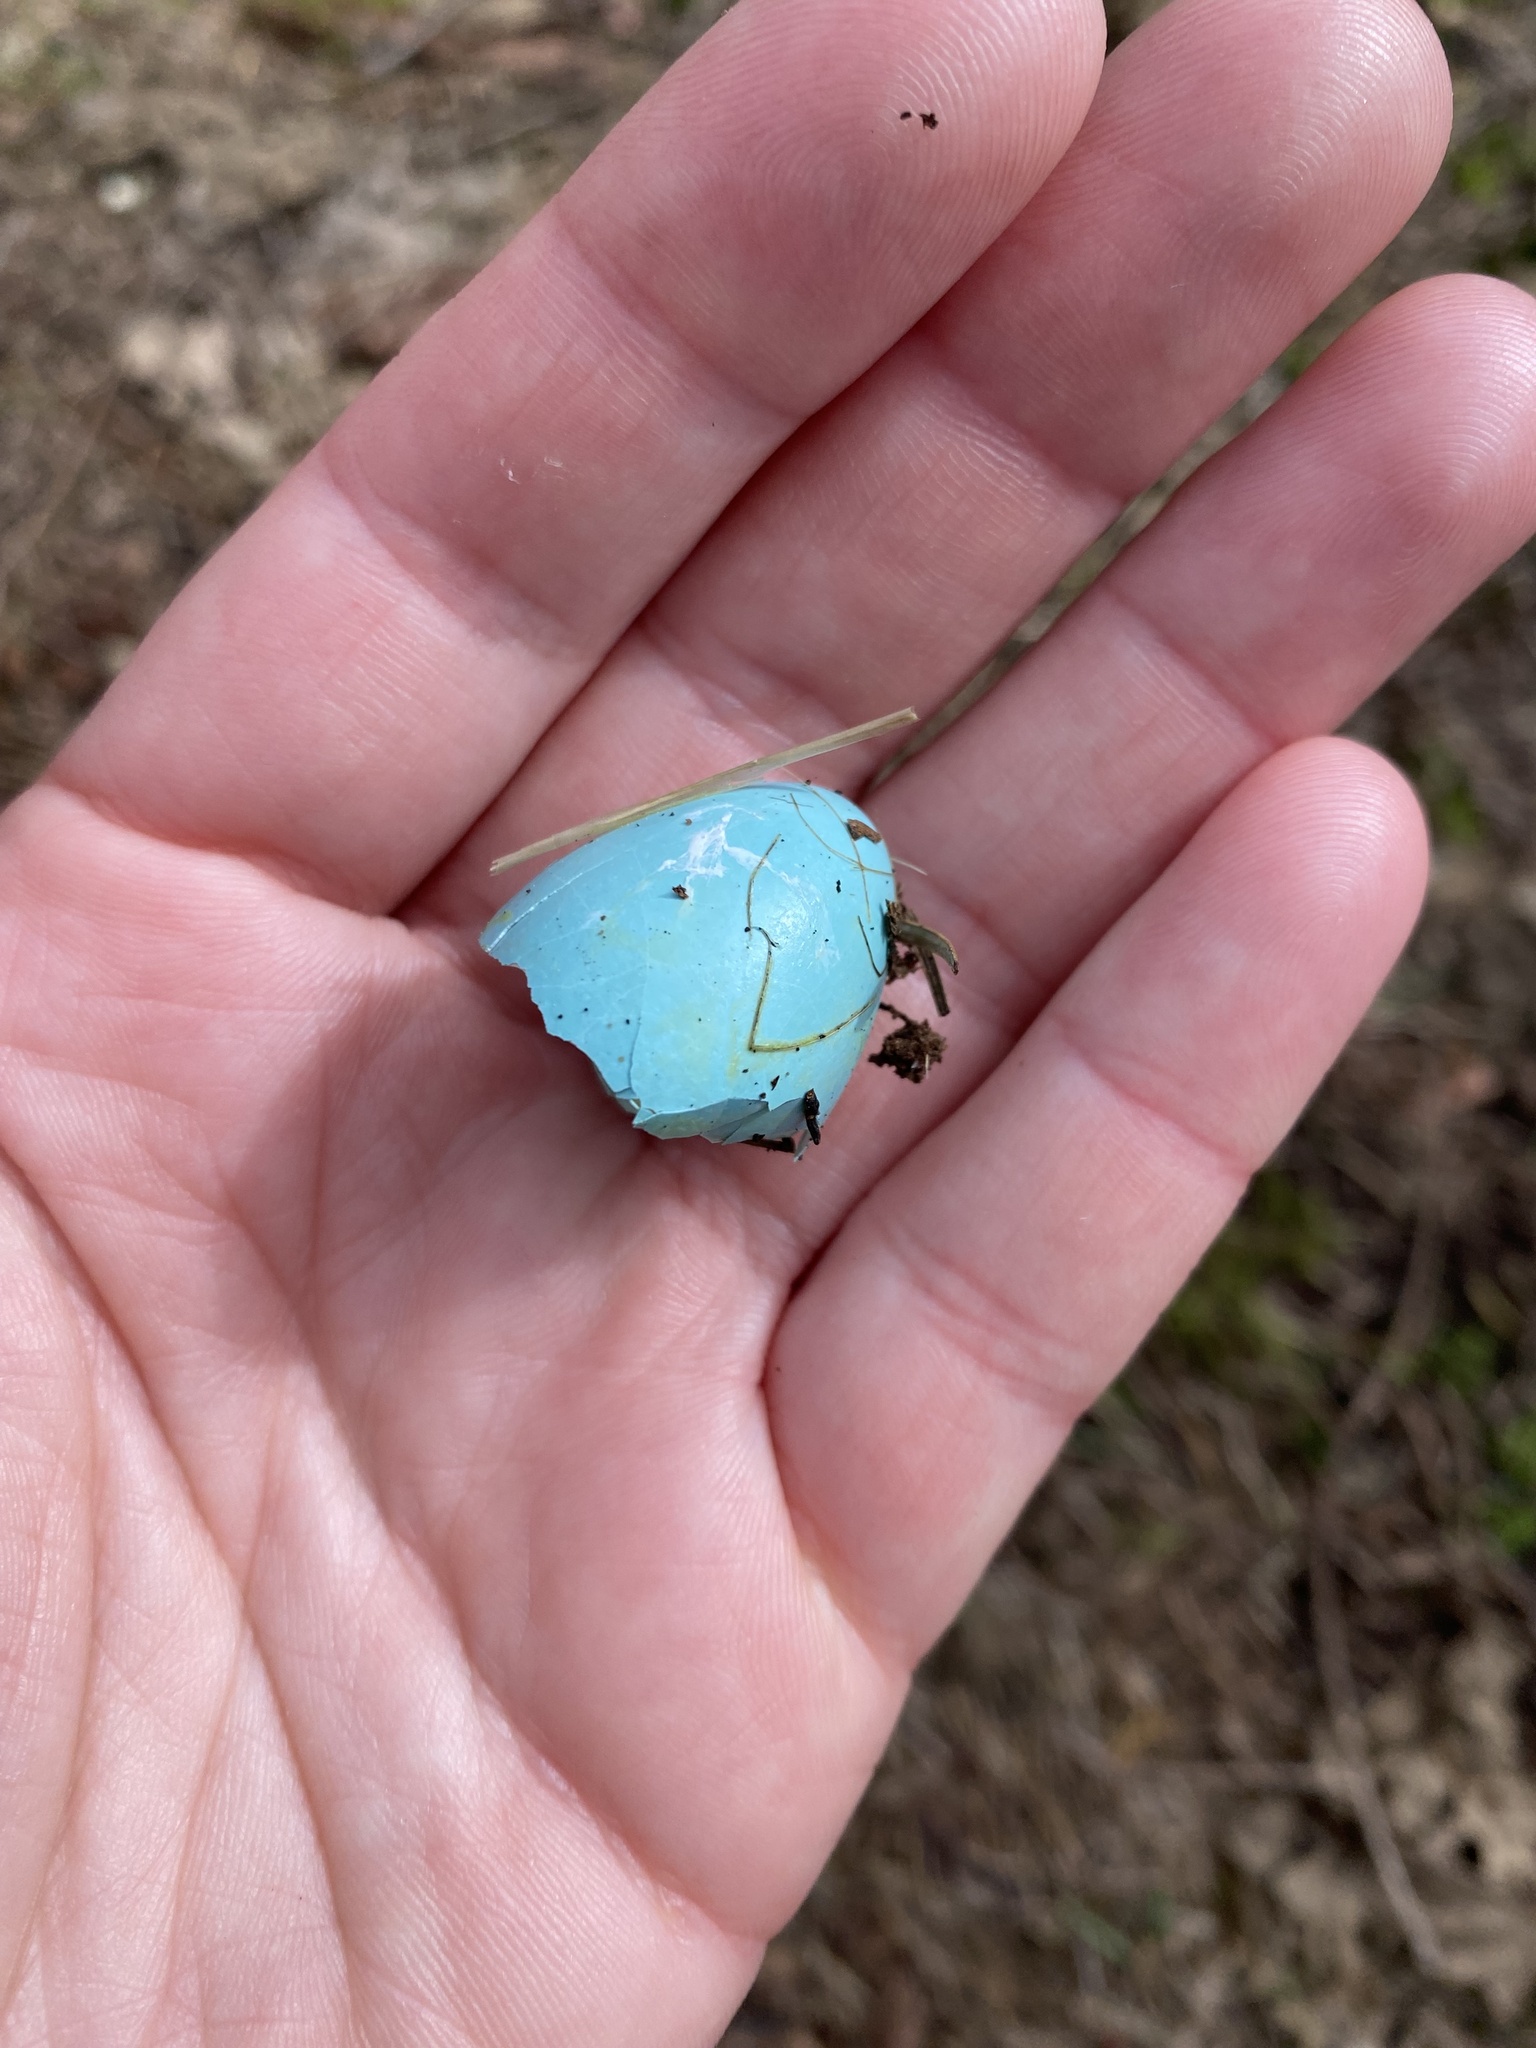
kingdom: Animalia
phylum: Chordata
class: Aves
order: Passeriformes
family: Turdidae
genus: Turdus
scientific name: Turdus migratorius
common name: American robin
